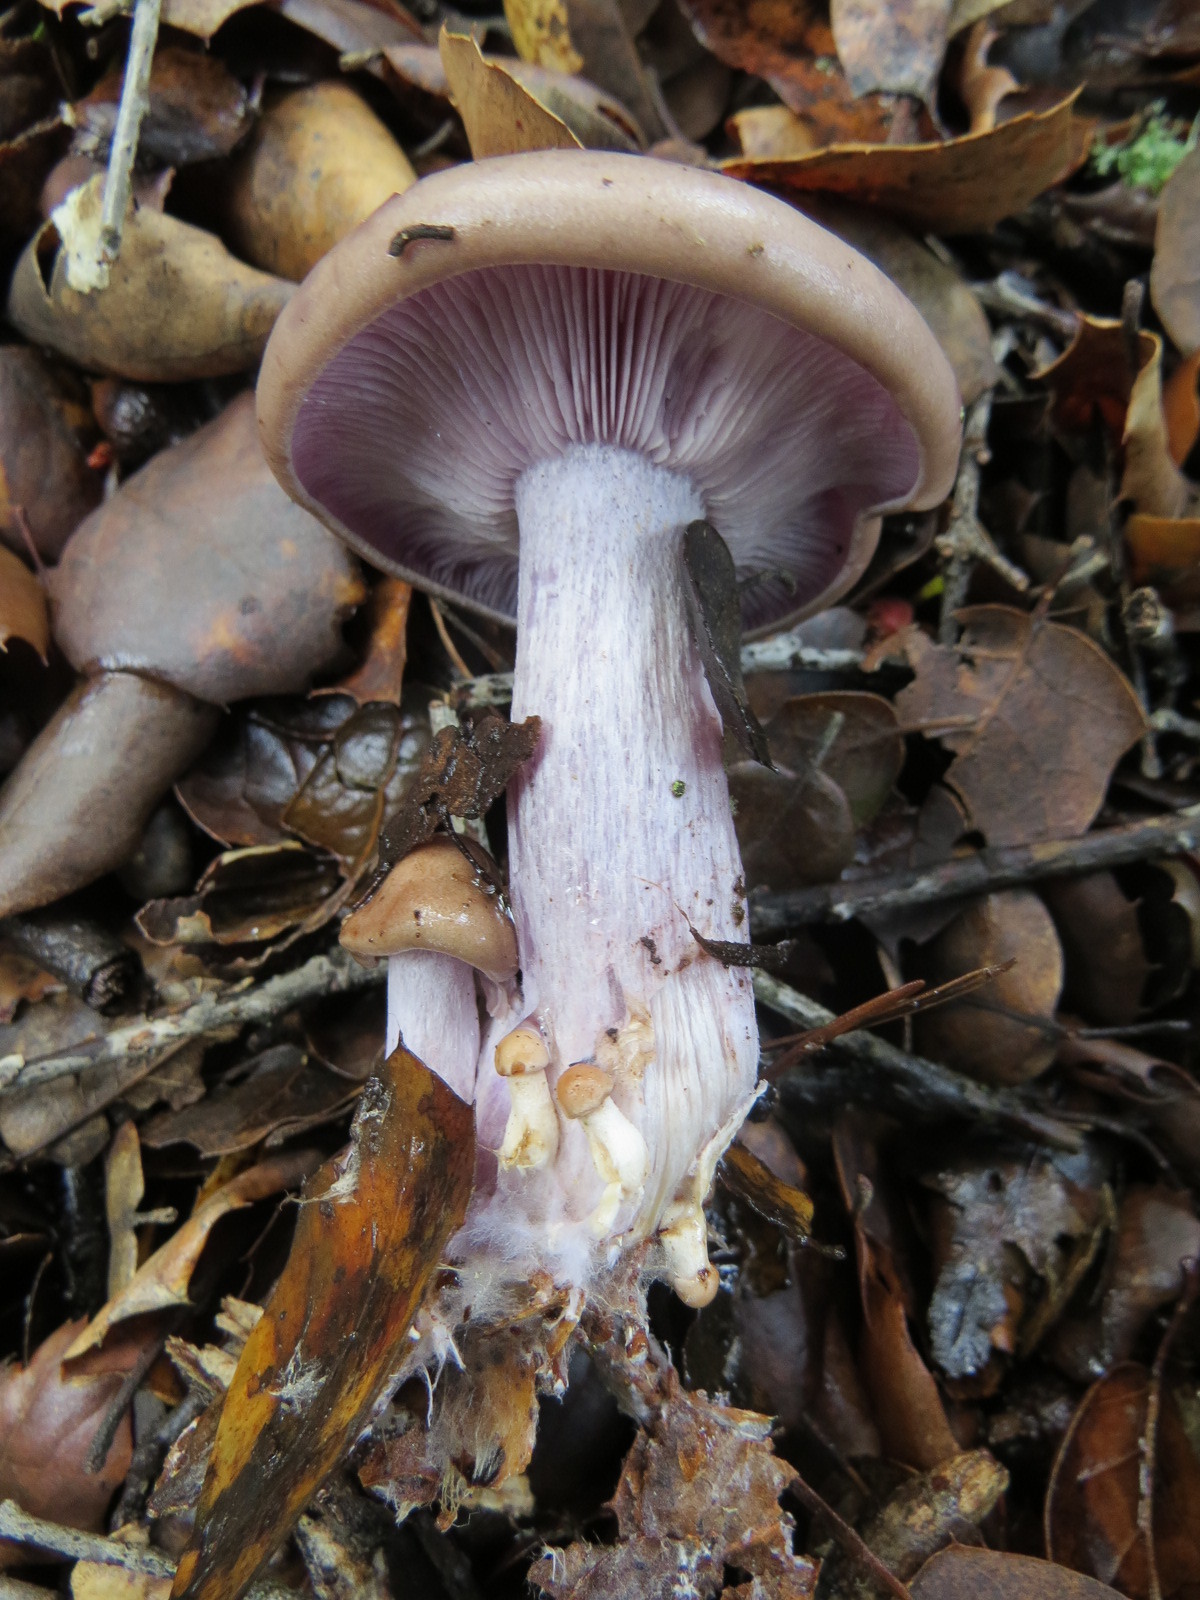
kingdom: Fungi
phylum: Basidiomycota
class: Agaricomycetes
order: Agaricales
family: Tricholomataceae
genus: Collybia
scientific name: Collybia
